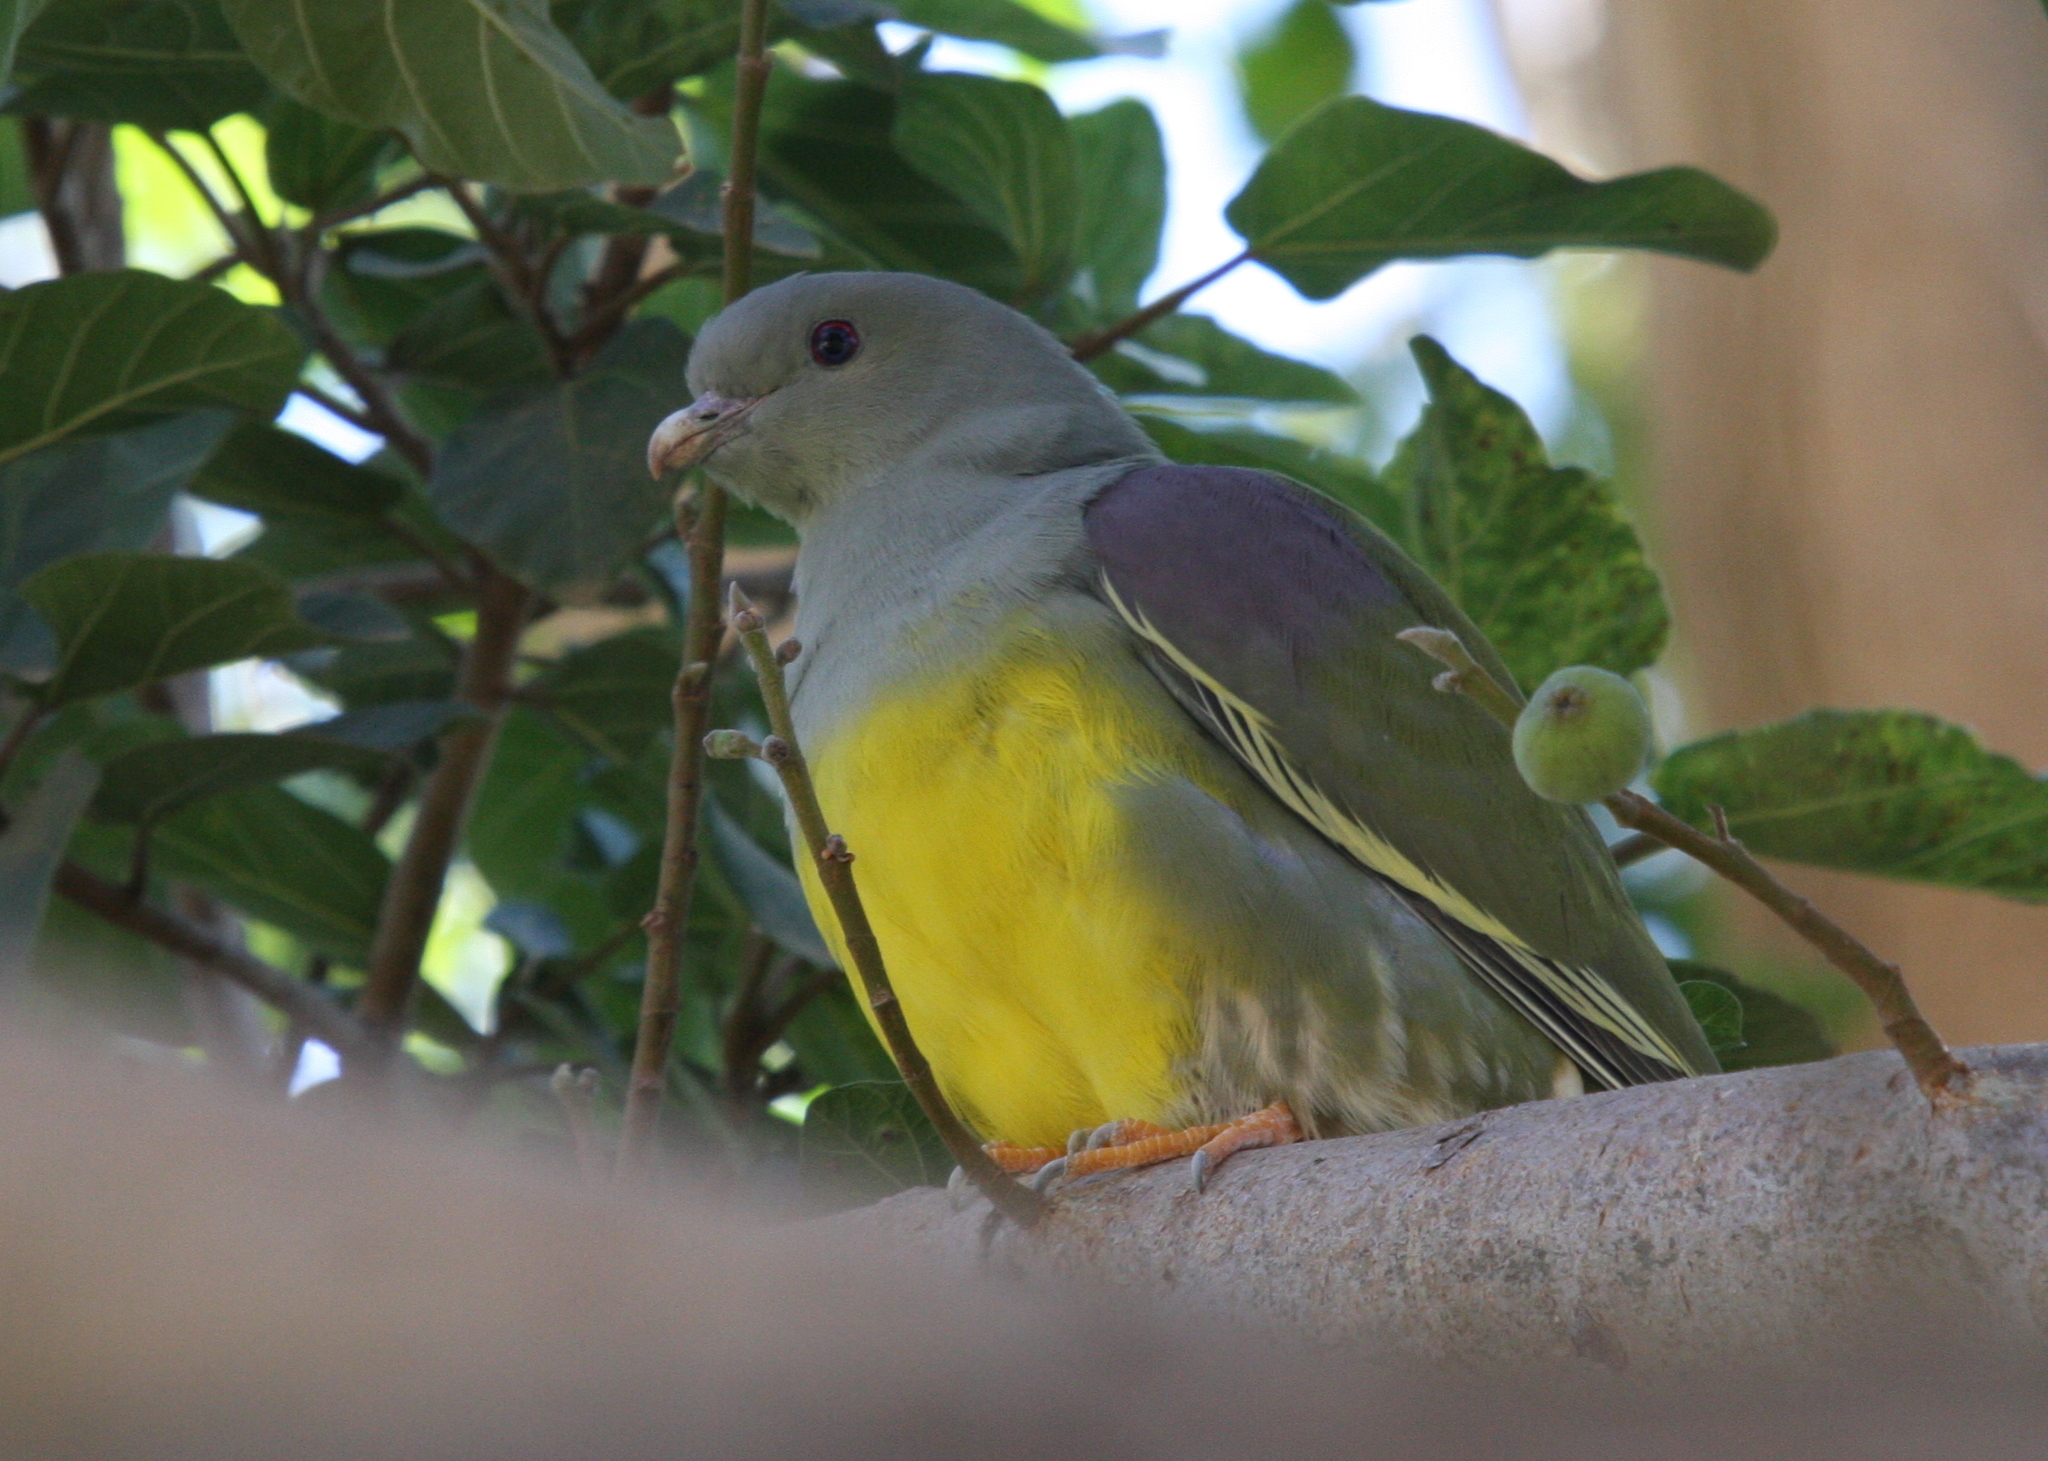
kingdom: Animalia
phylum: Chordata
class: Aves
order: Columbiformes
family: Columbidae
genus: Treron
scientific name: Treron waalia
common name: Bruce's green pigeon
